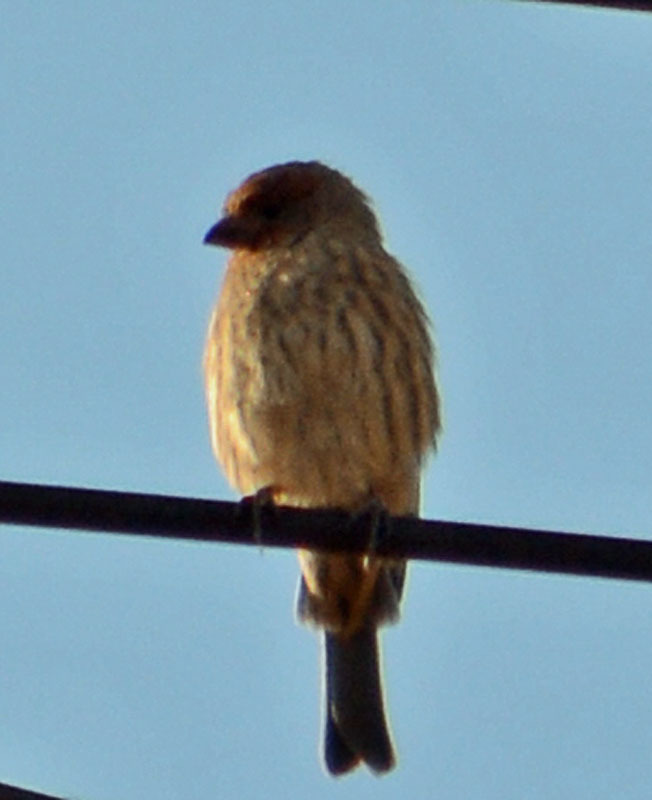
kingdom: Animalia
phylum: Chordata
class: Aves
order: Passeriformes
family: Fringillidae
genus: Haemorhous
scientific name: Haemorhous mexicanus
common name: House finch
